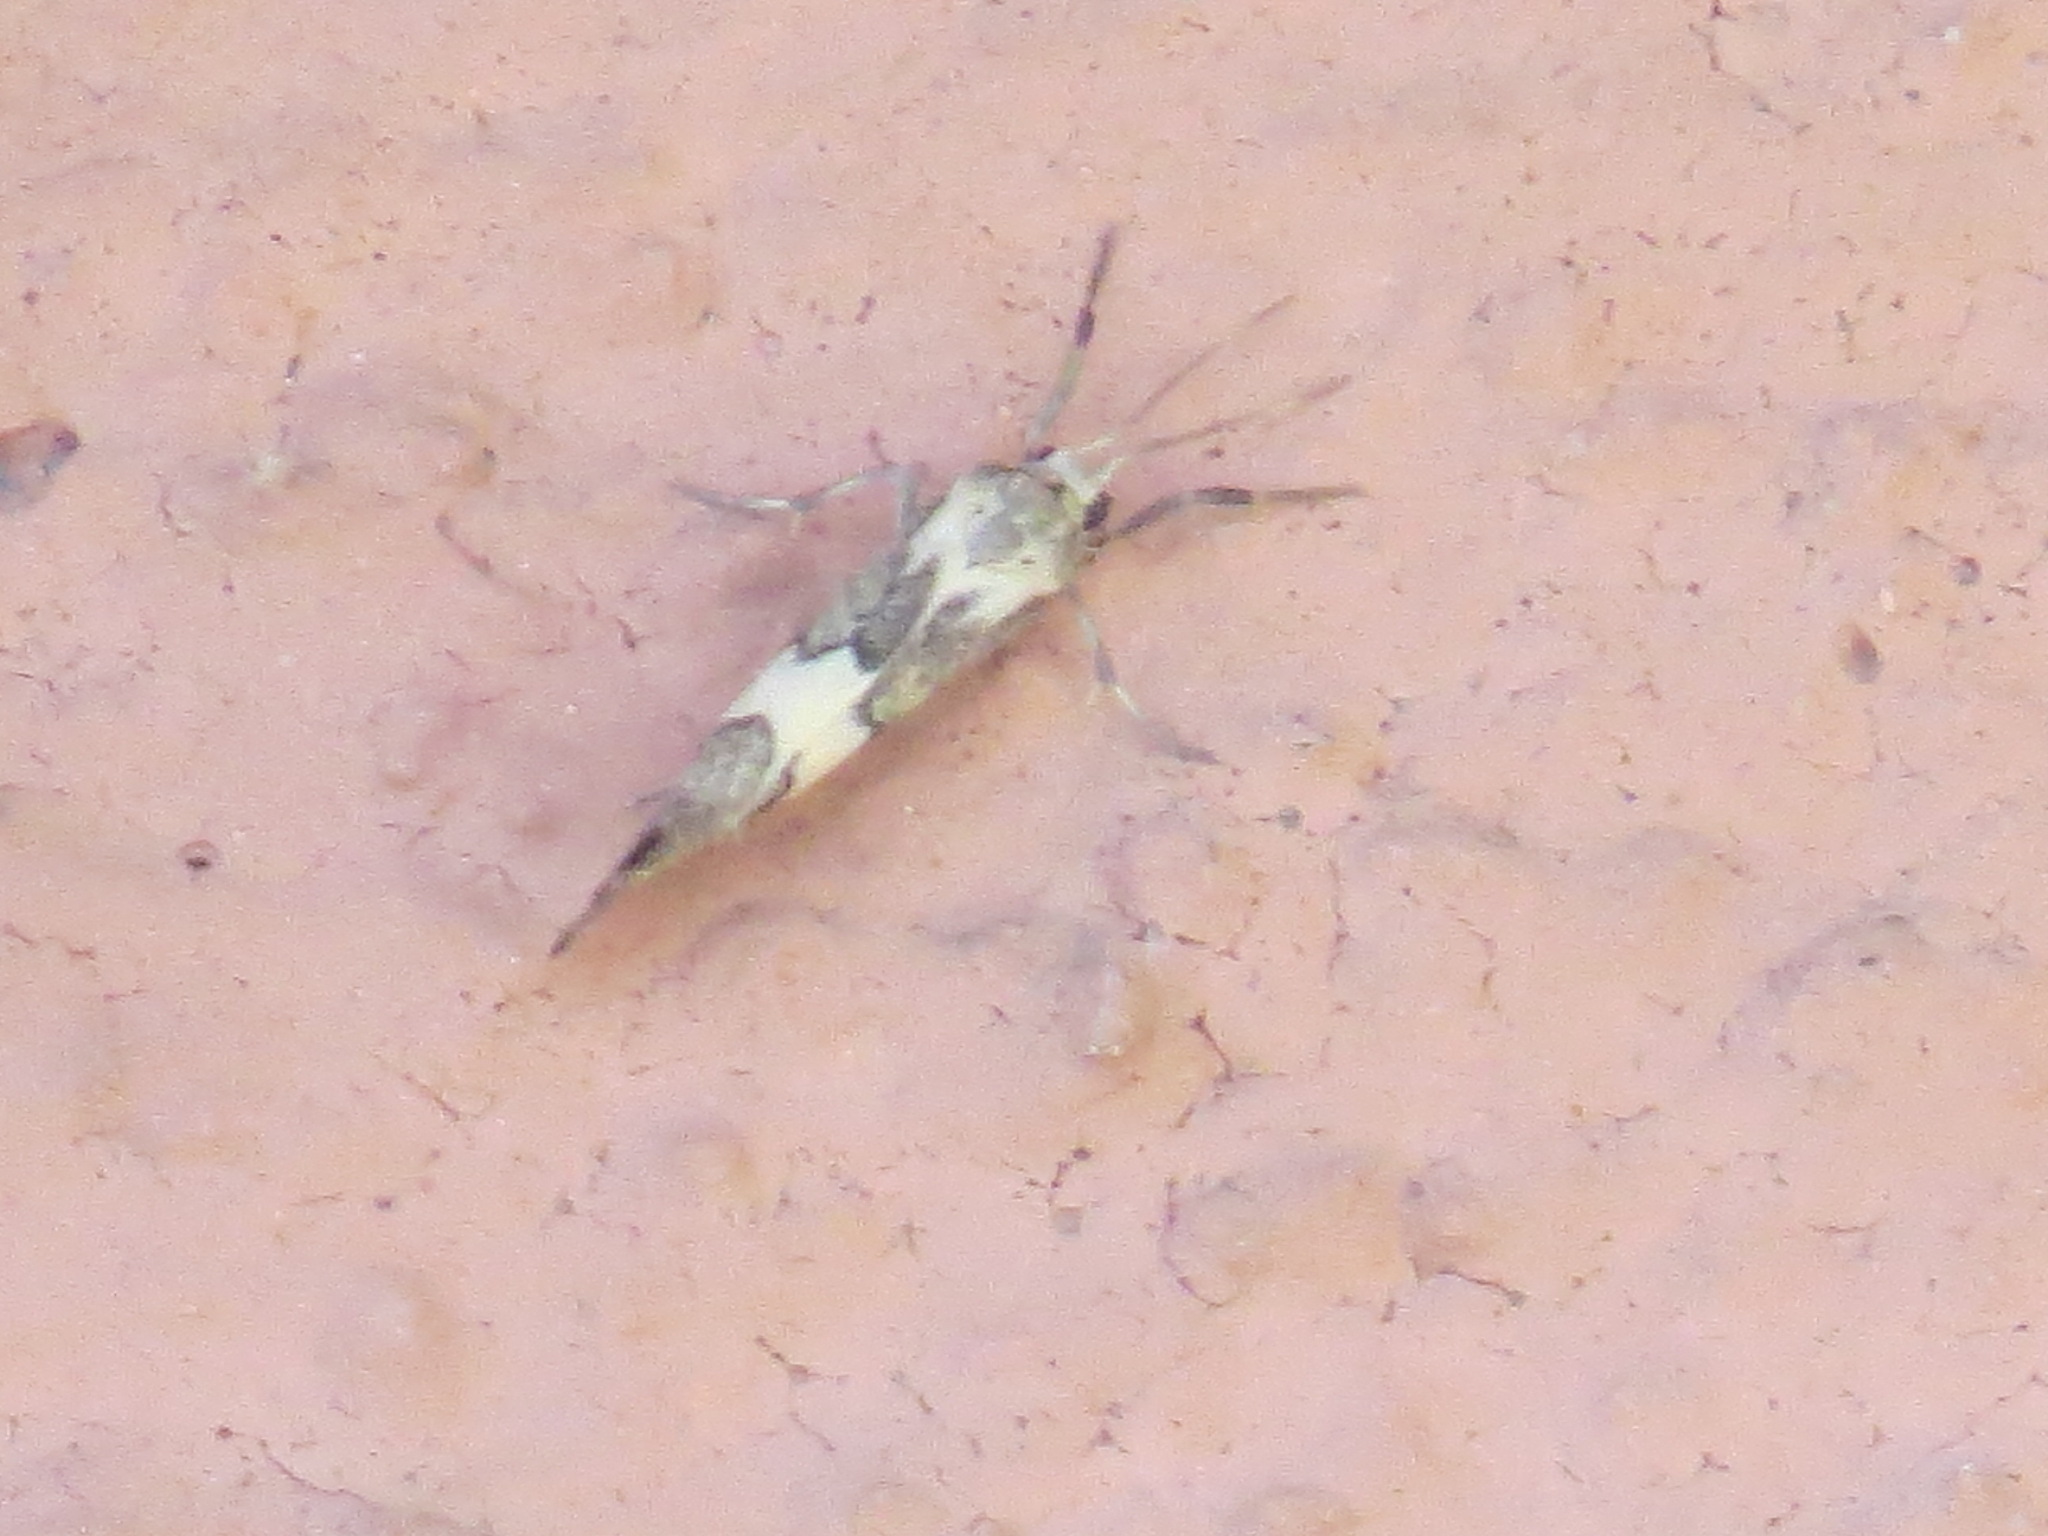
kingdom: Animalia
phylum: Arthropoda
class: Insecta
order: Lepidoptera
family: Erebidae
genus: Cisthene
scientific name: Cisthene deserta
